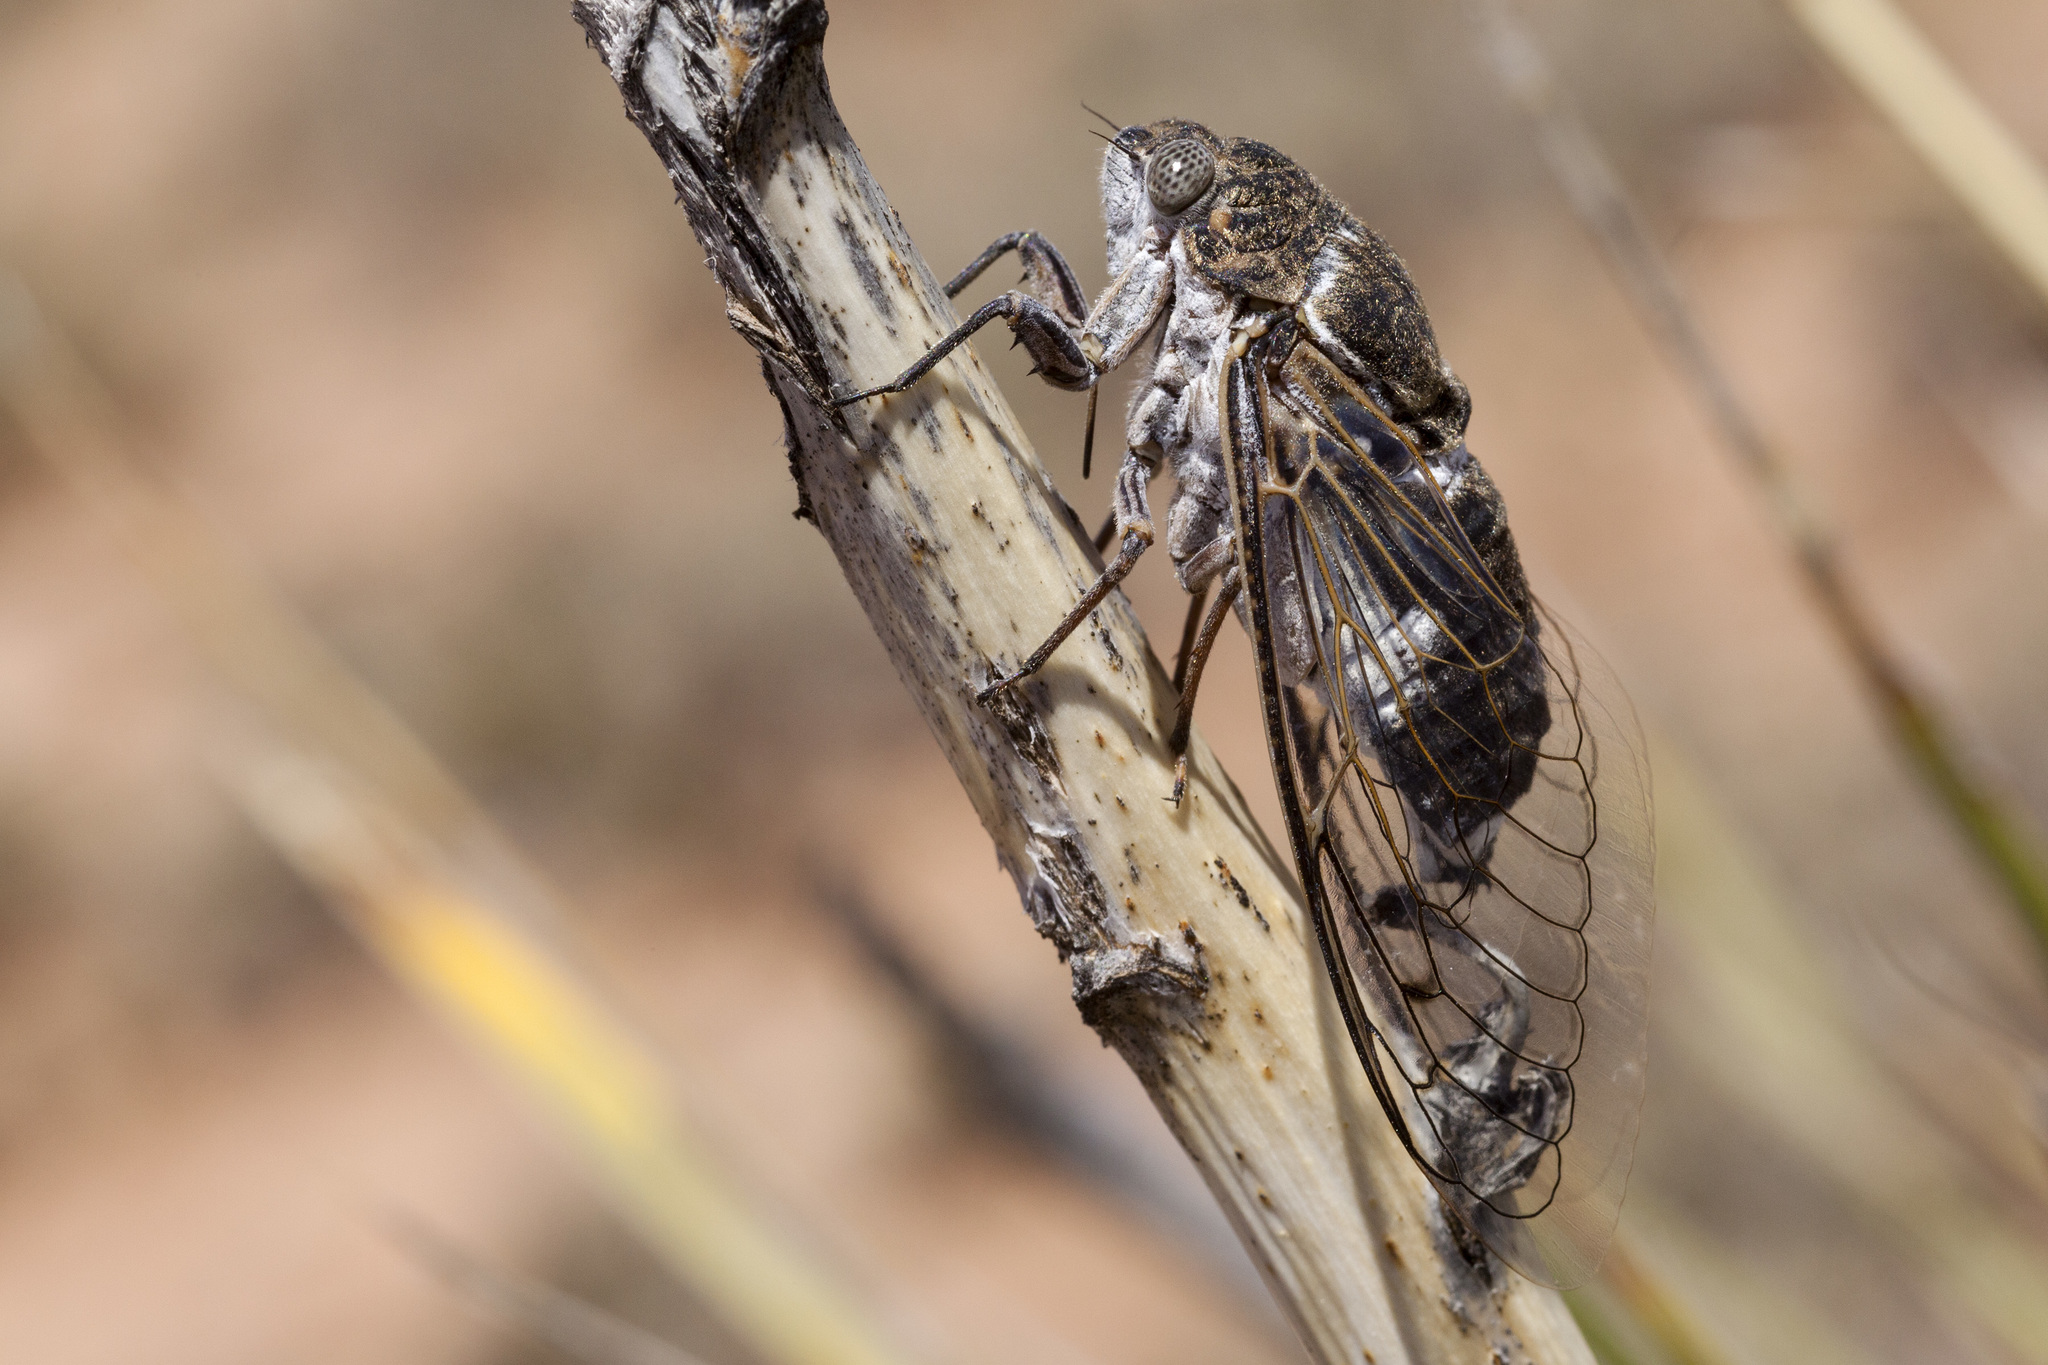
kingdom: Animalia
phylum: Arthropoda
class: Insecta
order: Hemiptera
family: Cicadidae
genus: Cacama
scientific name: Cacama valvata
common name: Cactus dodger
